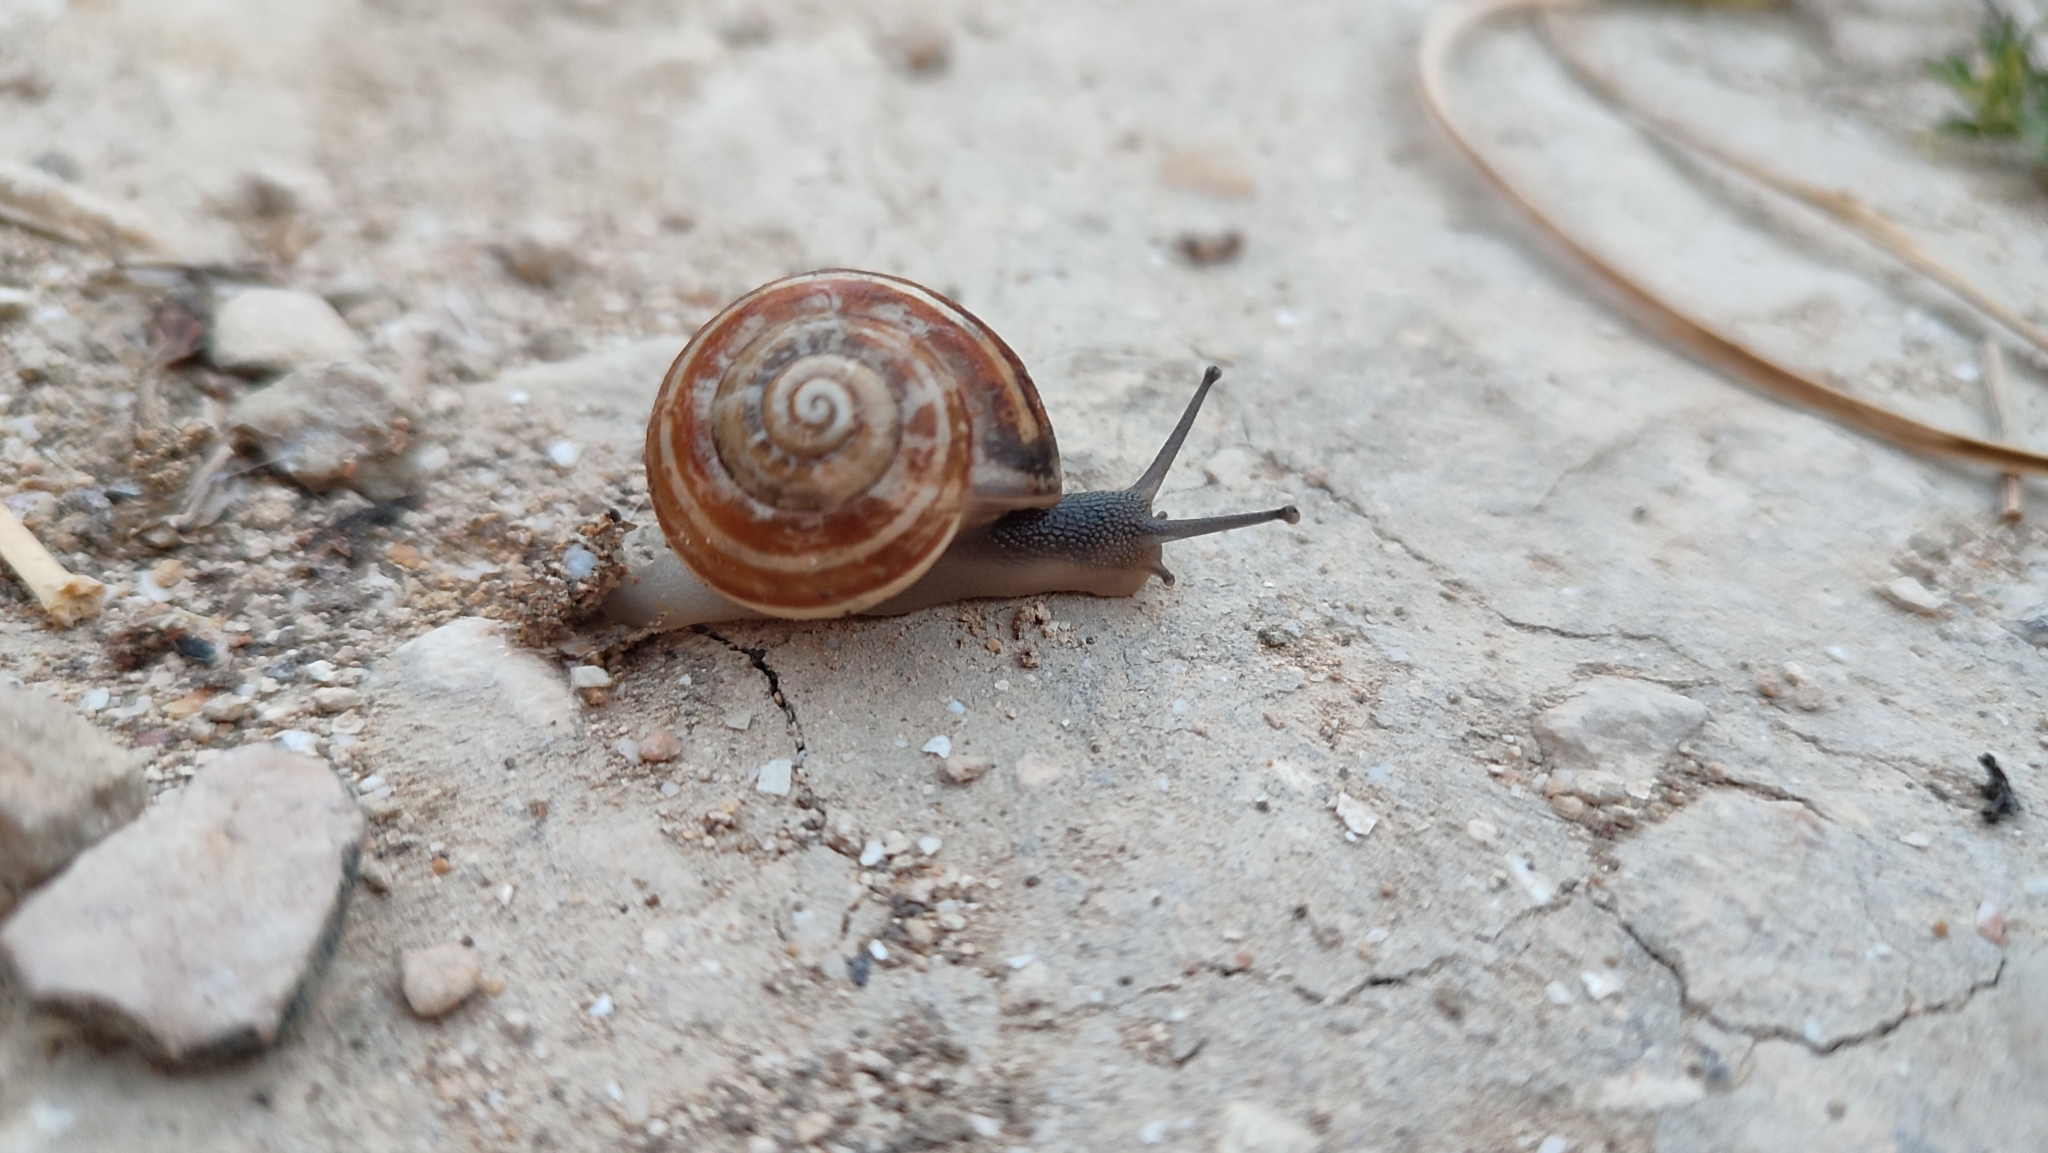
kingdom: Animalia
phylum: Mollusca
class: Gastropoda
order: Stylommatophora
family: Helicidae
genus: Eobania
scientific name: Eobania vermiculata
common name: Chocolateband snail
